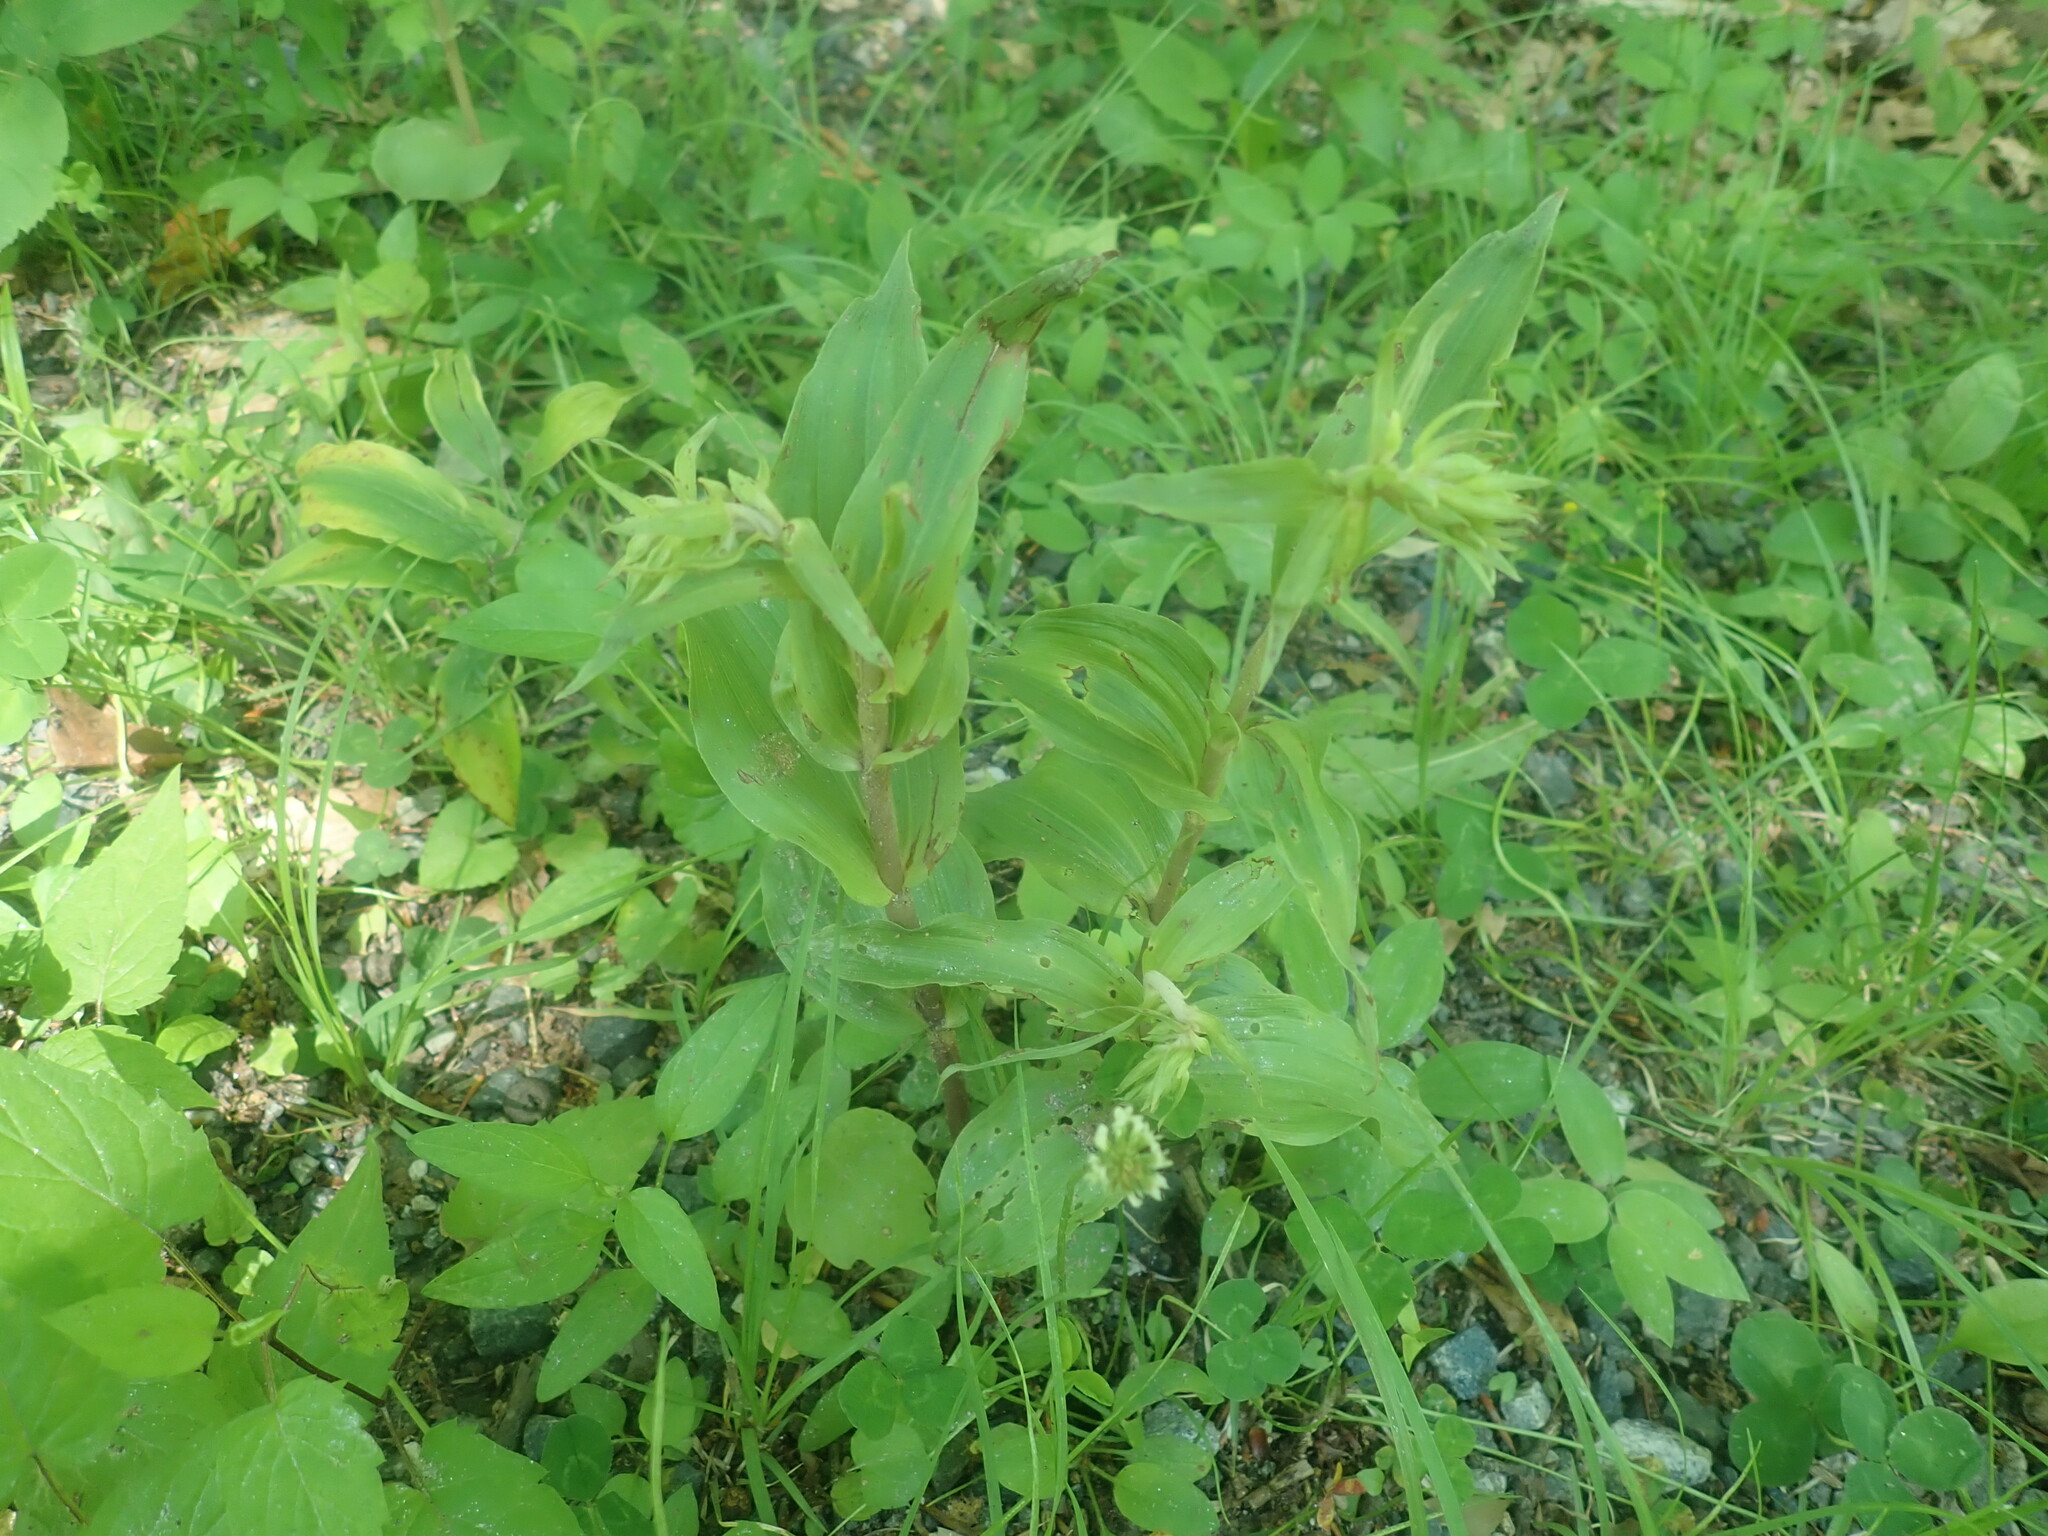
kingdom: Plantae
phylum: Tracheophyta
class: Liliopsida
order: Asparagales
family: Orchidaceae
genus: Epipactis
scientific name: Epipactis helleborine
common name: Broad-leaved helleborine
